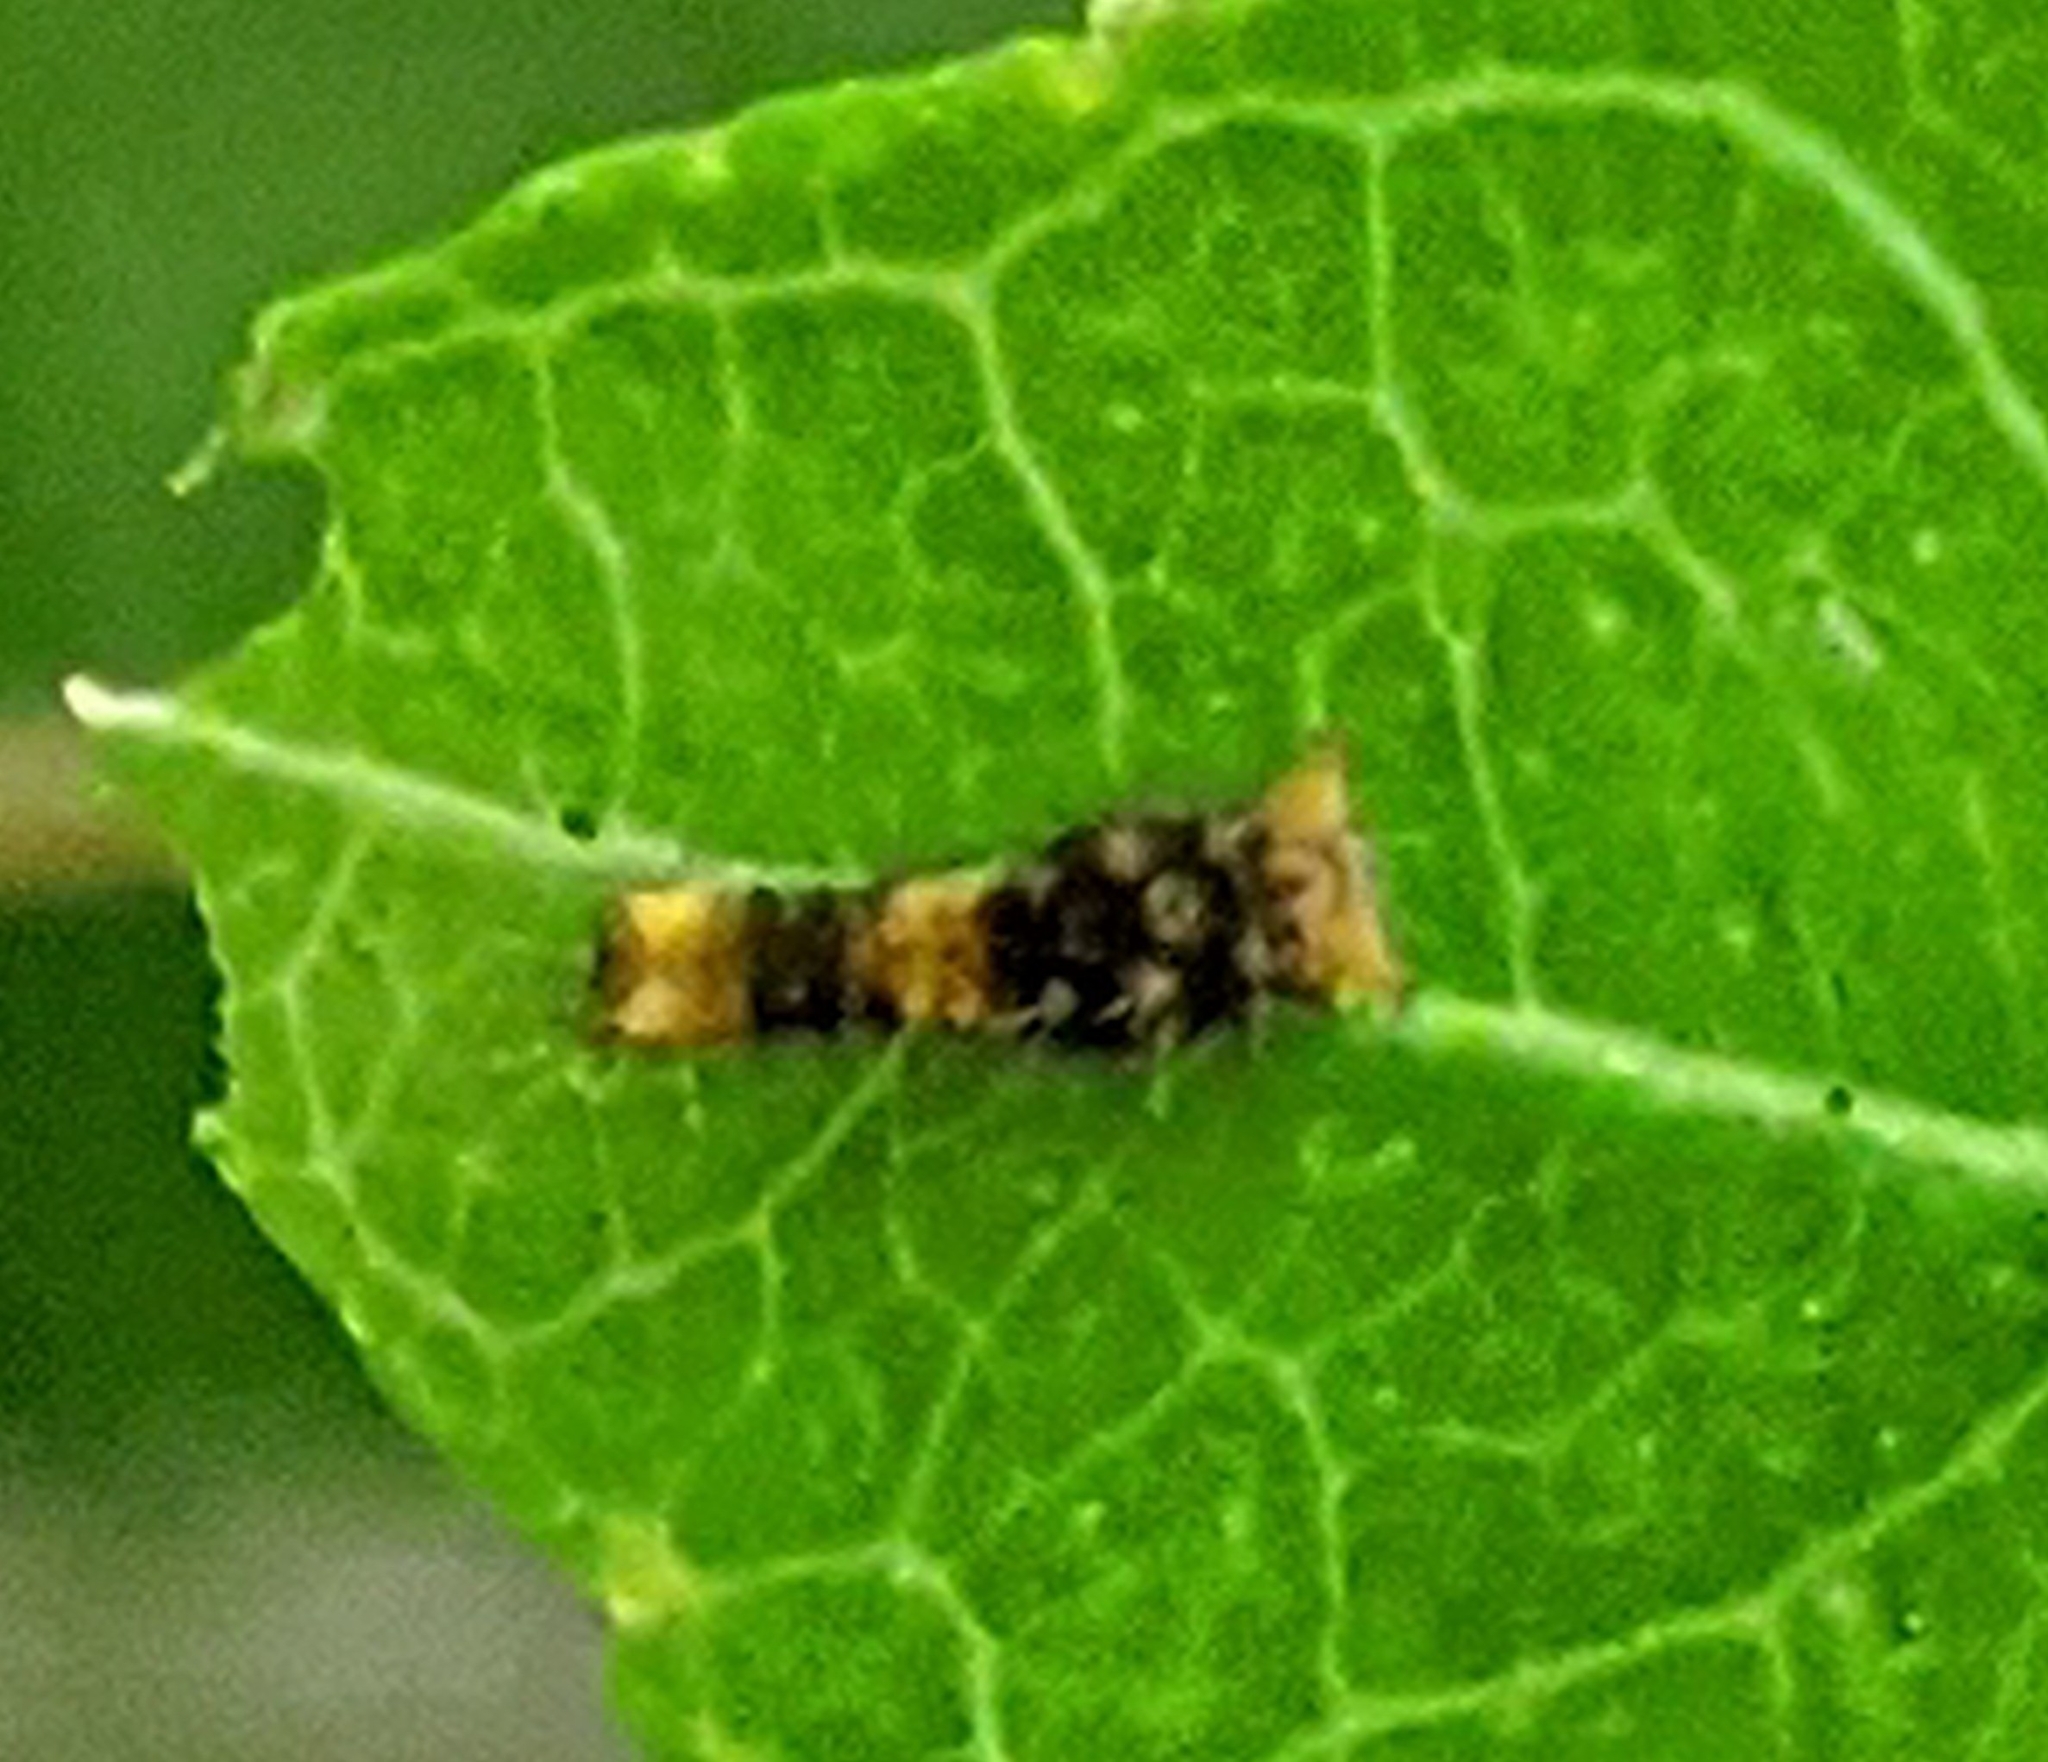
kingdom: Animalia
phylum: Arthropoda
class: Insecta
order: Lepidoptera
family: Papilionidae
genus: Papilio
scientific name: Papilio cresphontes
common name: Giant swallowtail
